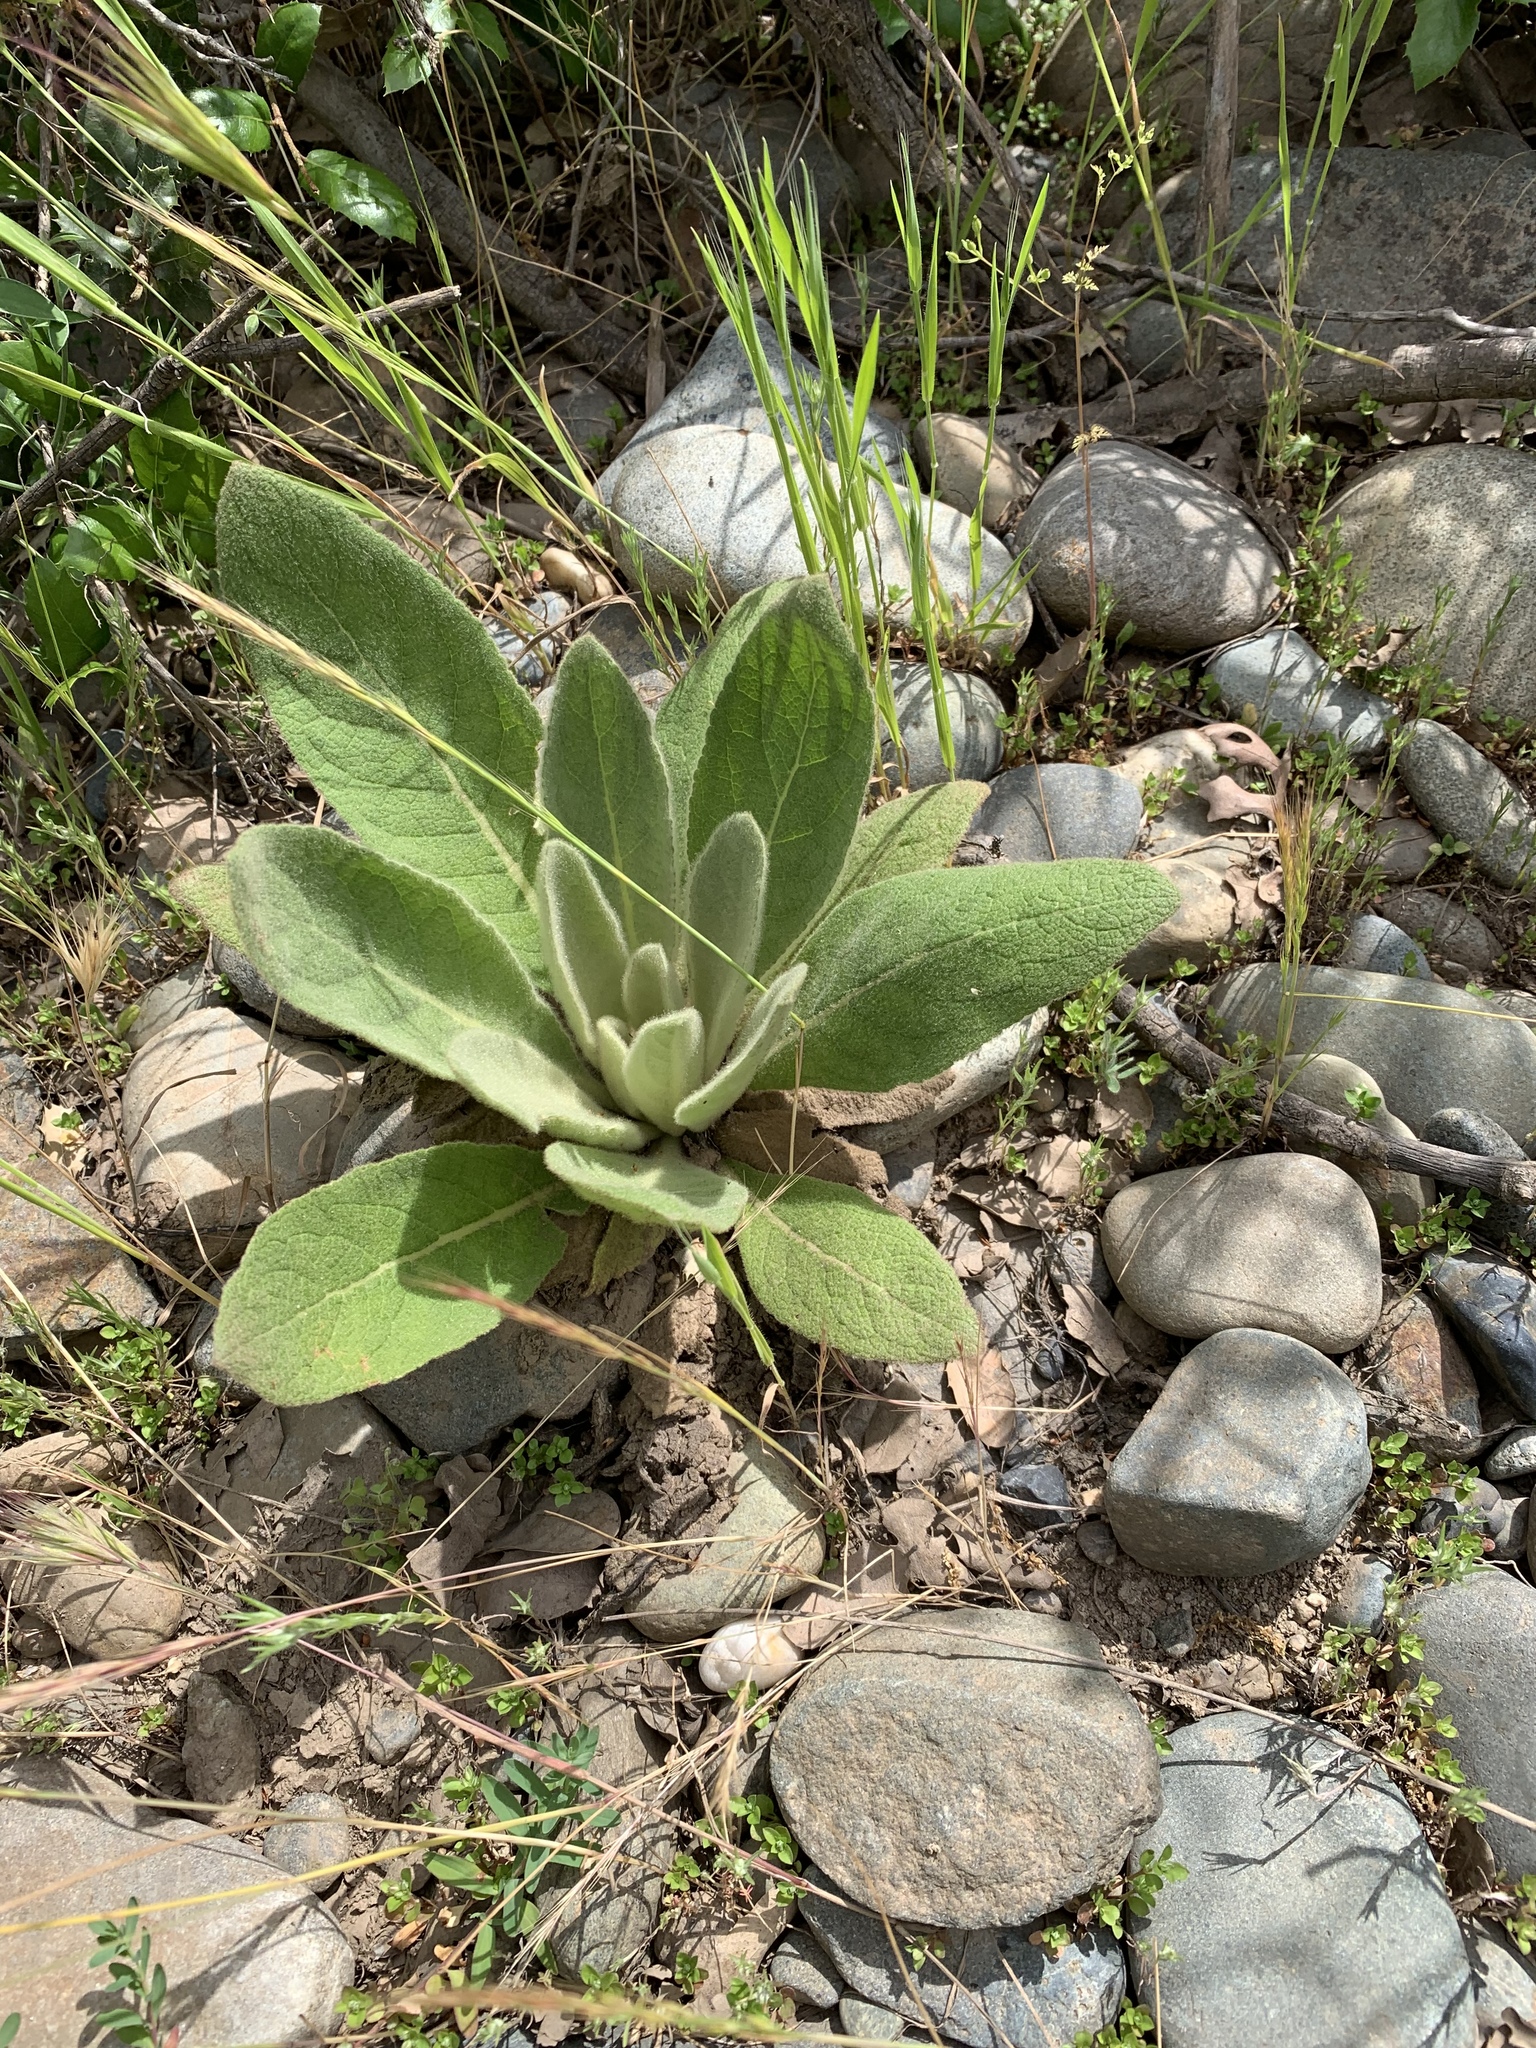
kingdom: Plantae
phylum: Tracheophyta
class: Magnoliopsida
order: Lamiales
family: Scrophulariaceae
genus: Verbascum
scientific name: Verbascum thapsus
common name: Common mullein
